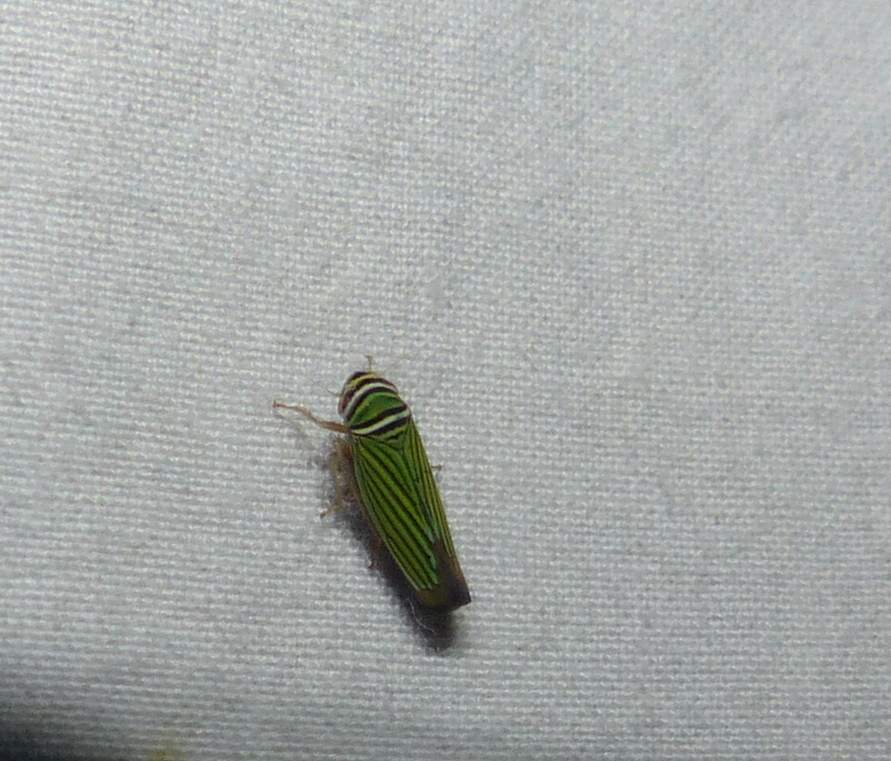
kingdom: Animalia
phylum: Arthropoda
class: Insecta
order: Hemiptera
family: Cicadellidae
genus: Tylozygus
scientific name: Tylozygus bifidus
